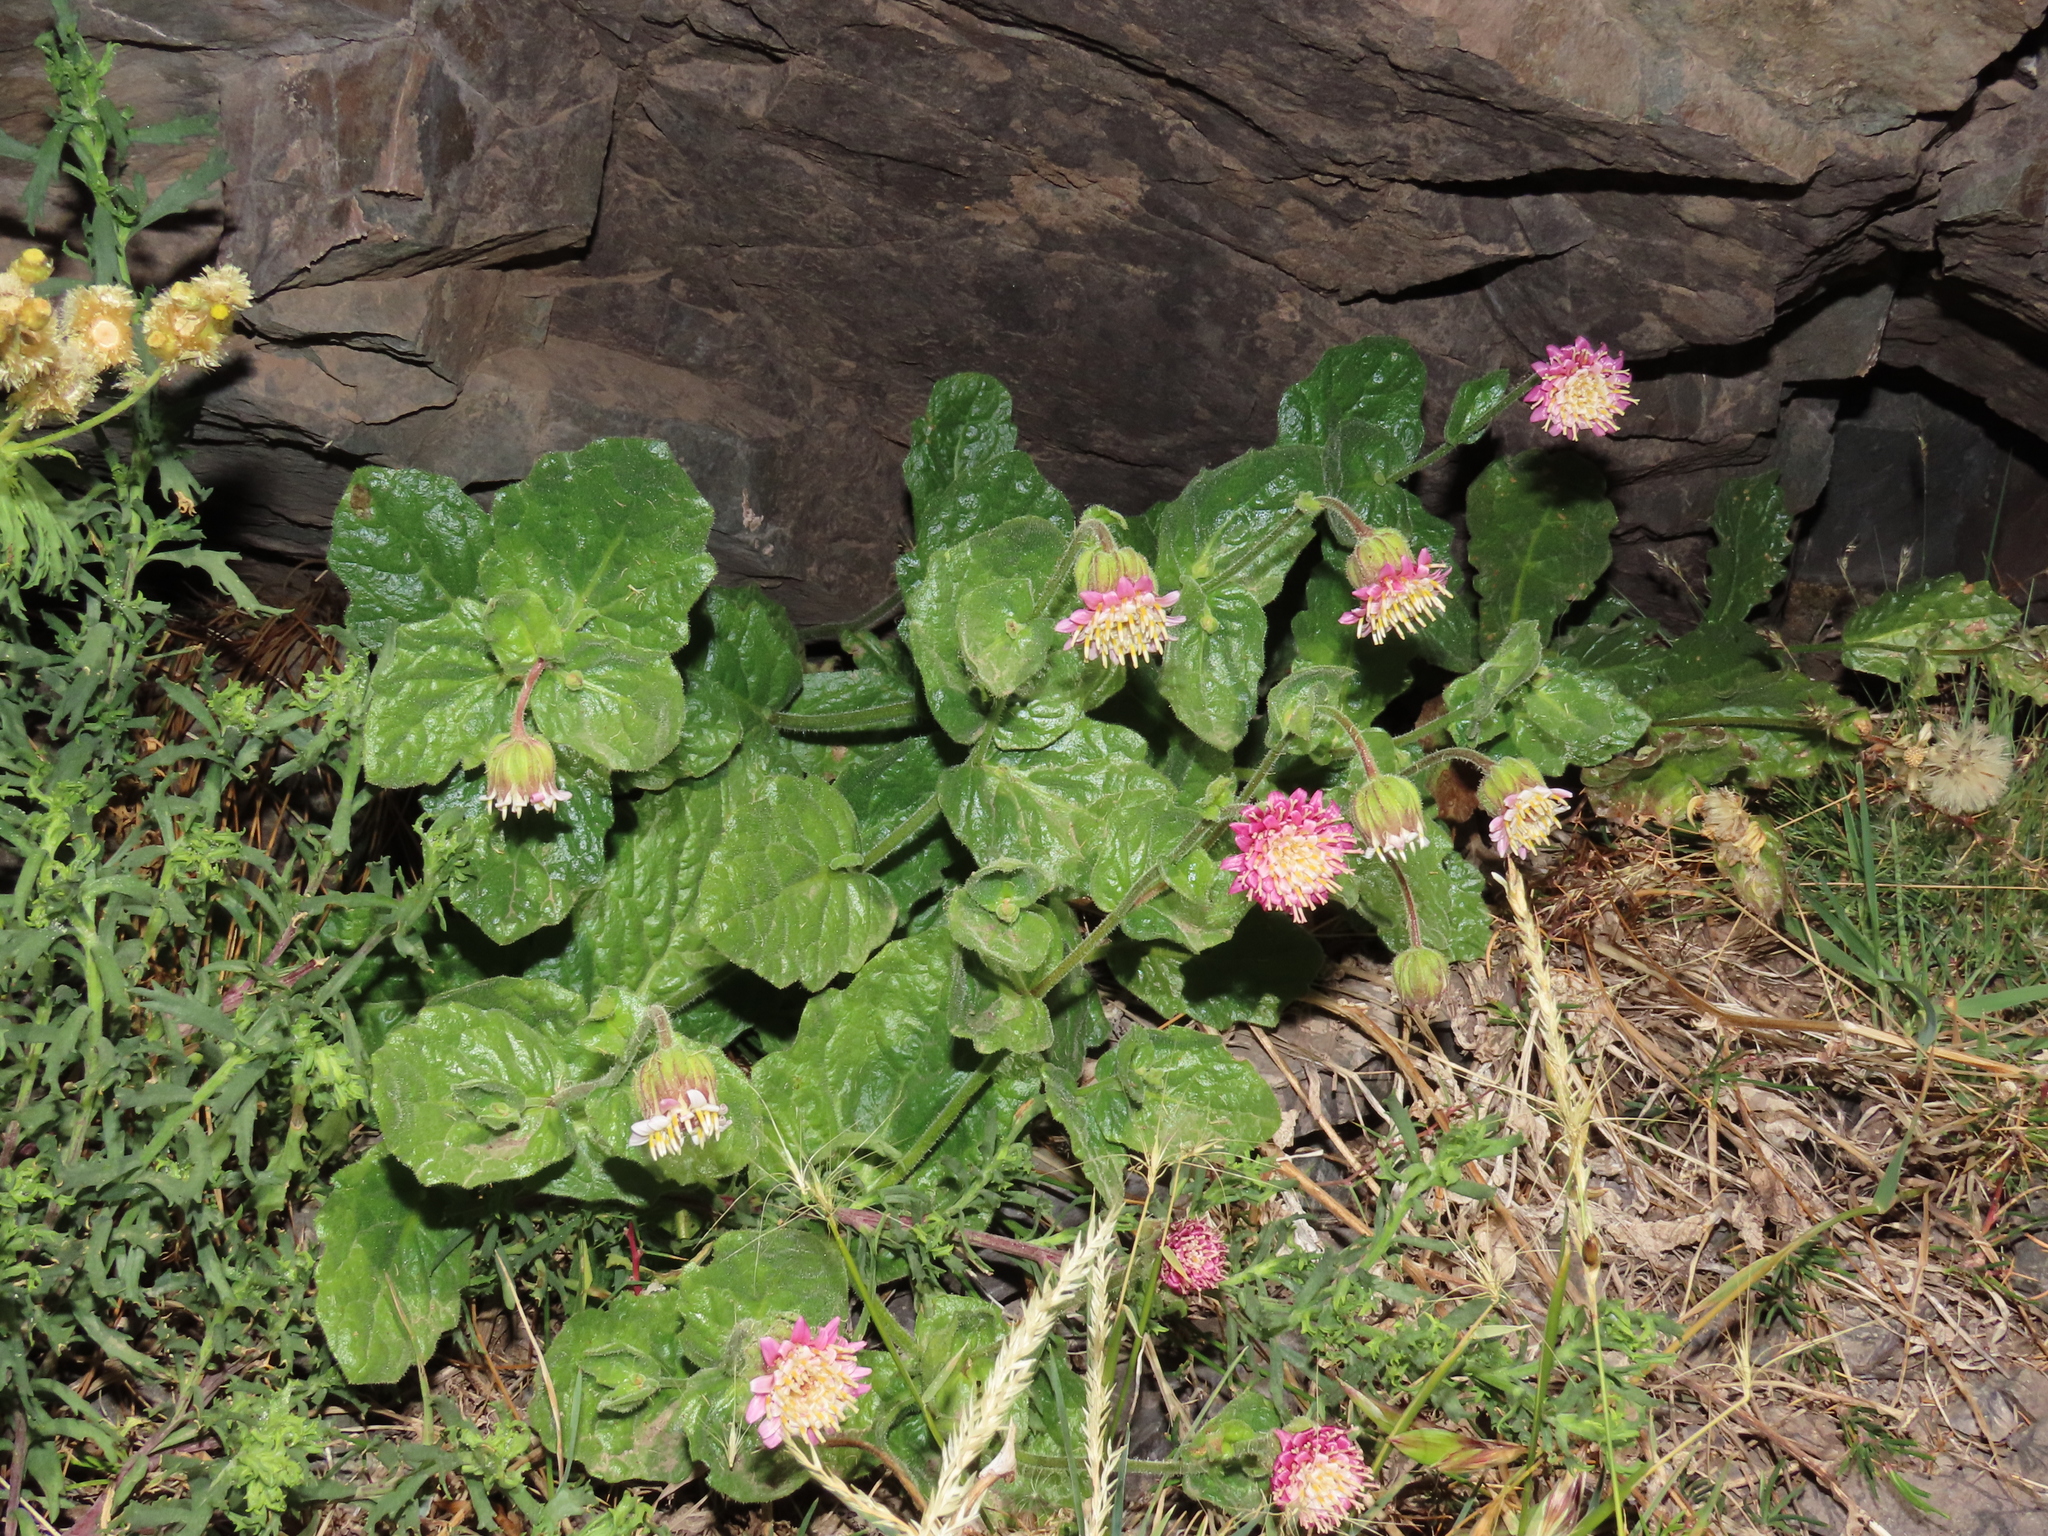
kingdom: Plantae
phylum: Tracheophyta
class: Magnoliopsida
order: Asterales
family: Asteraceae
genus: Marticorenia
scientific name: Marticorenia foliosa
